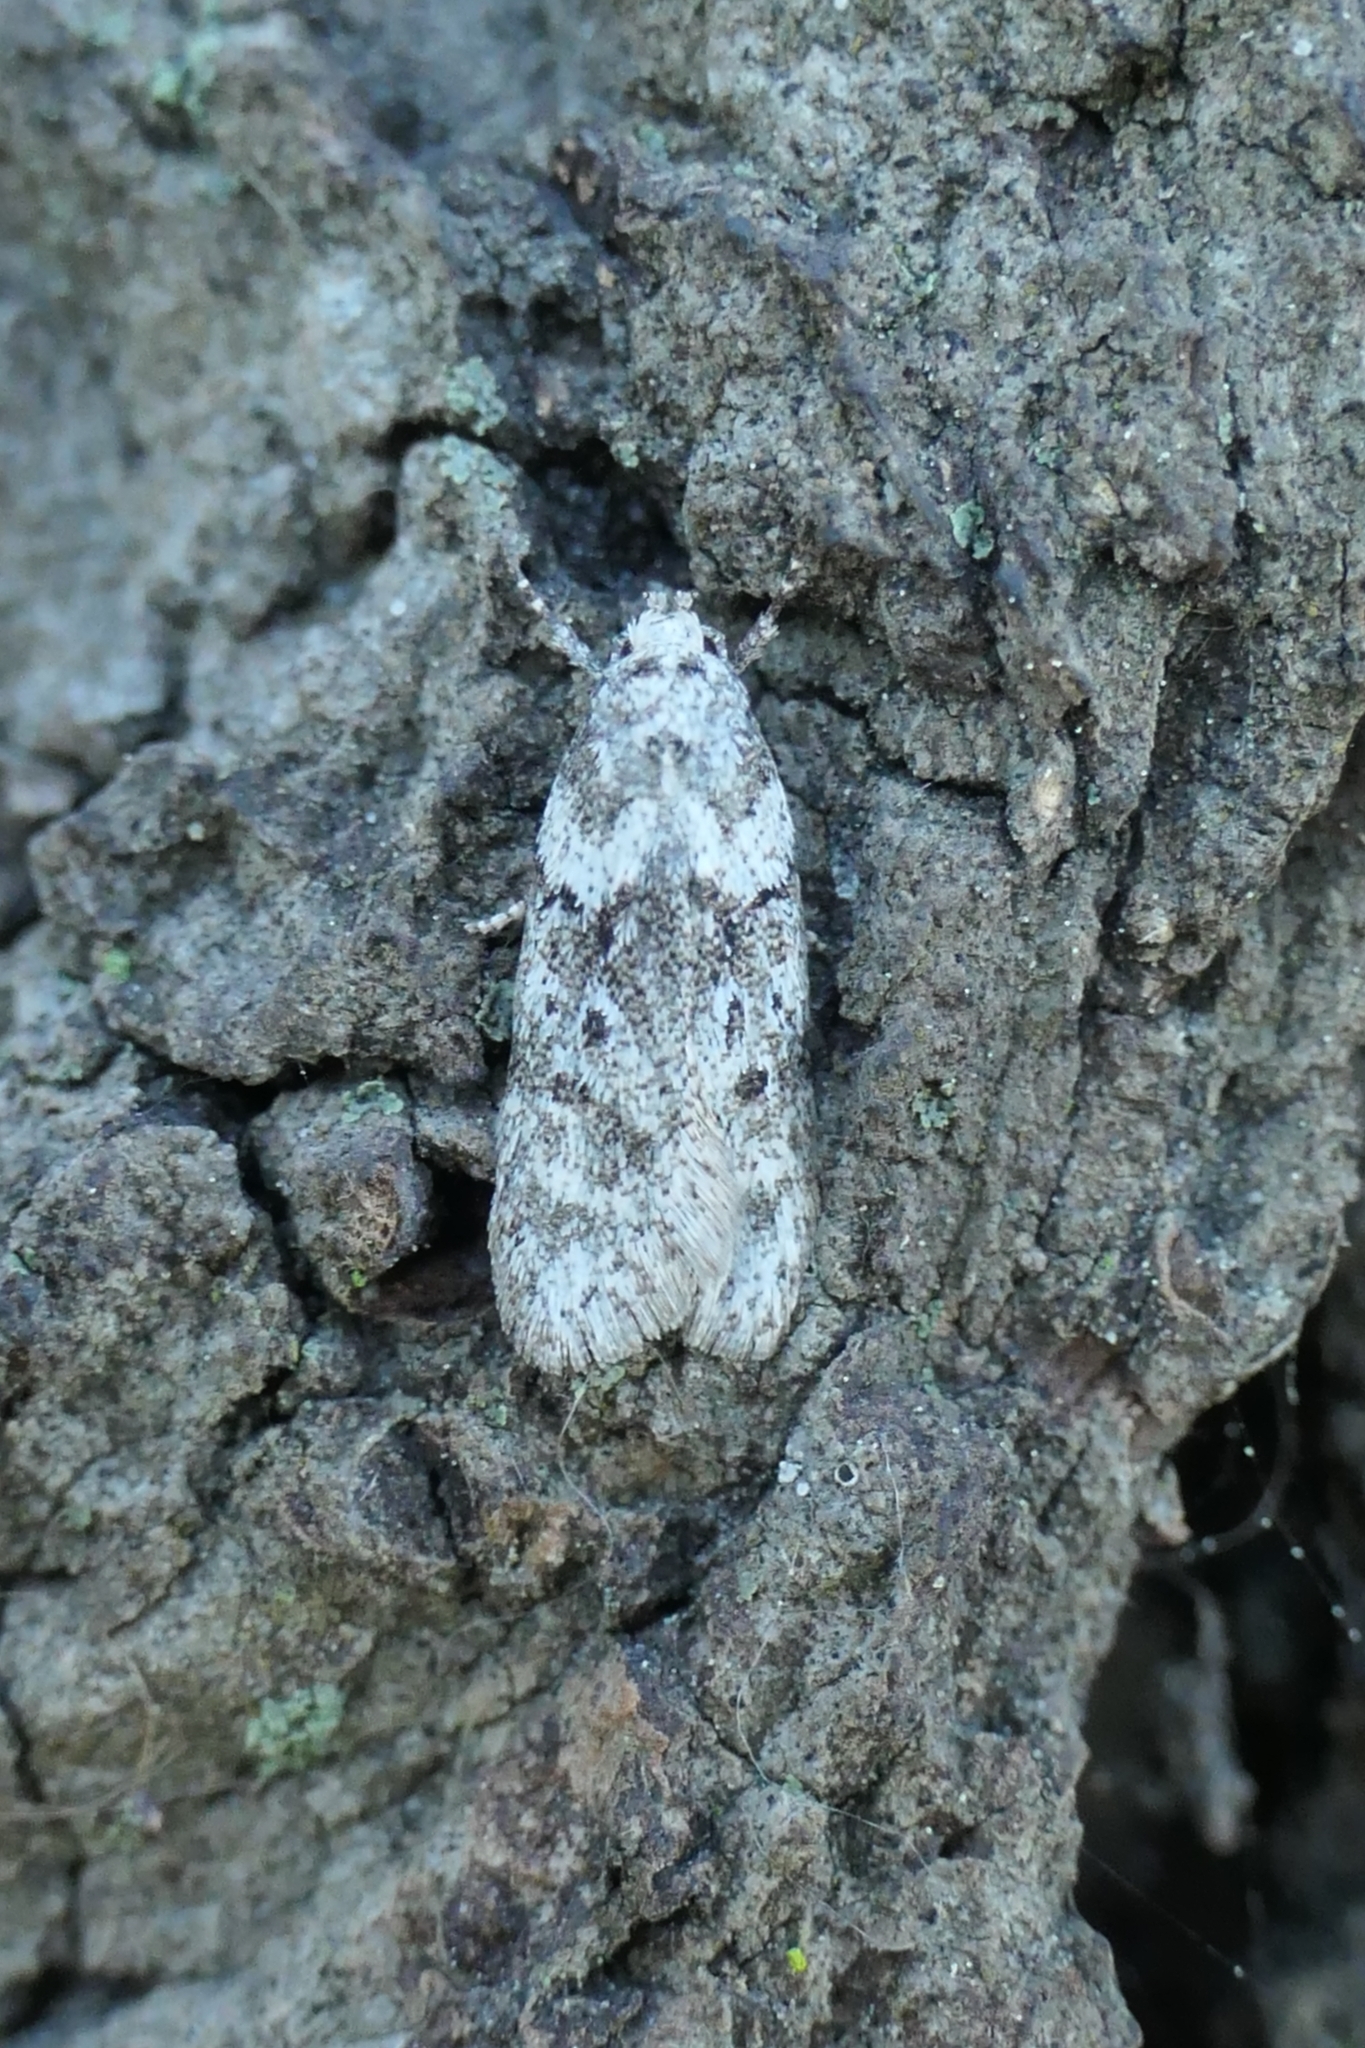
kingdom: Animalia
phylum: Arthropoda
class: Insecta
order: Lepidoptera
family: Oecophoridae
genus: Izatha
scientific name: Izatha convulsella
